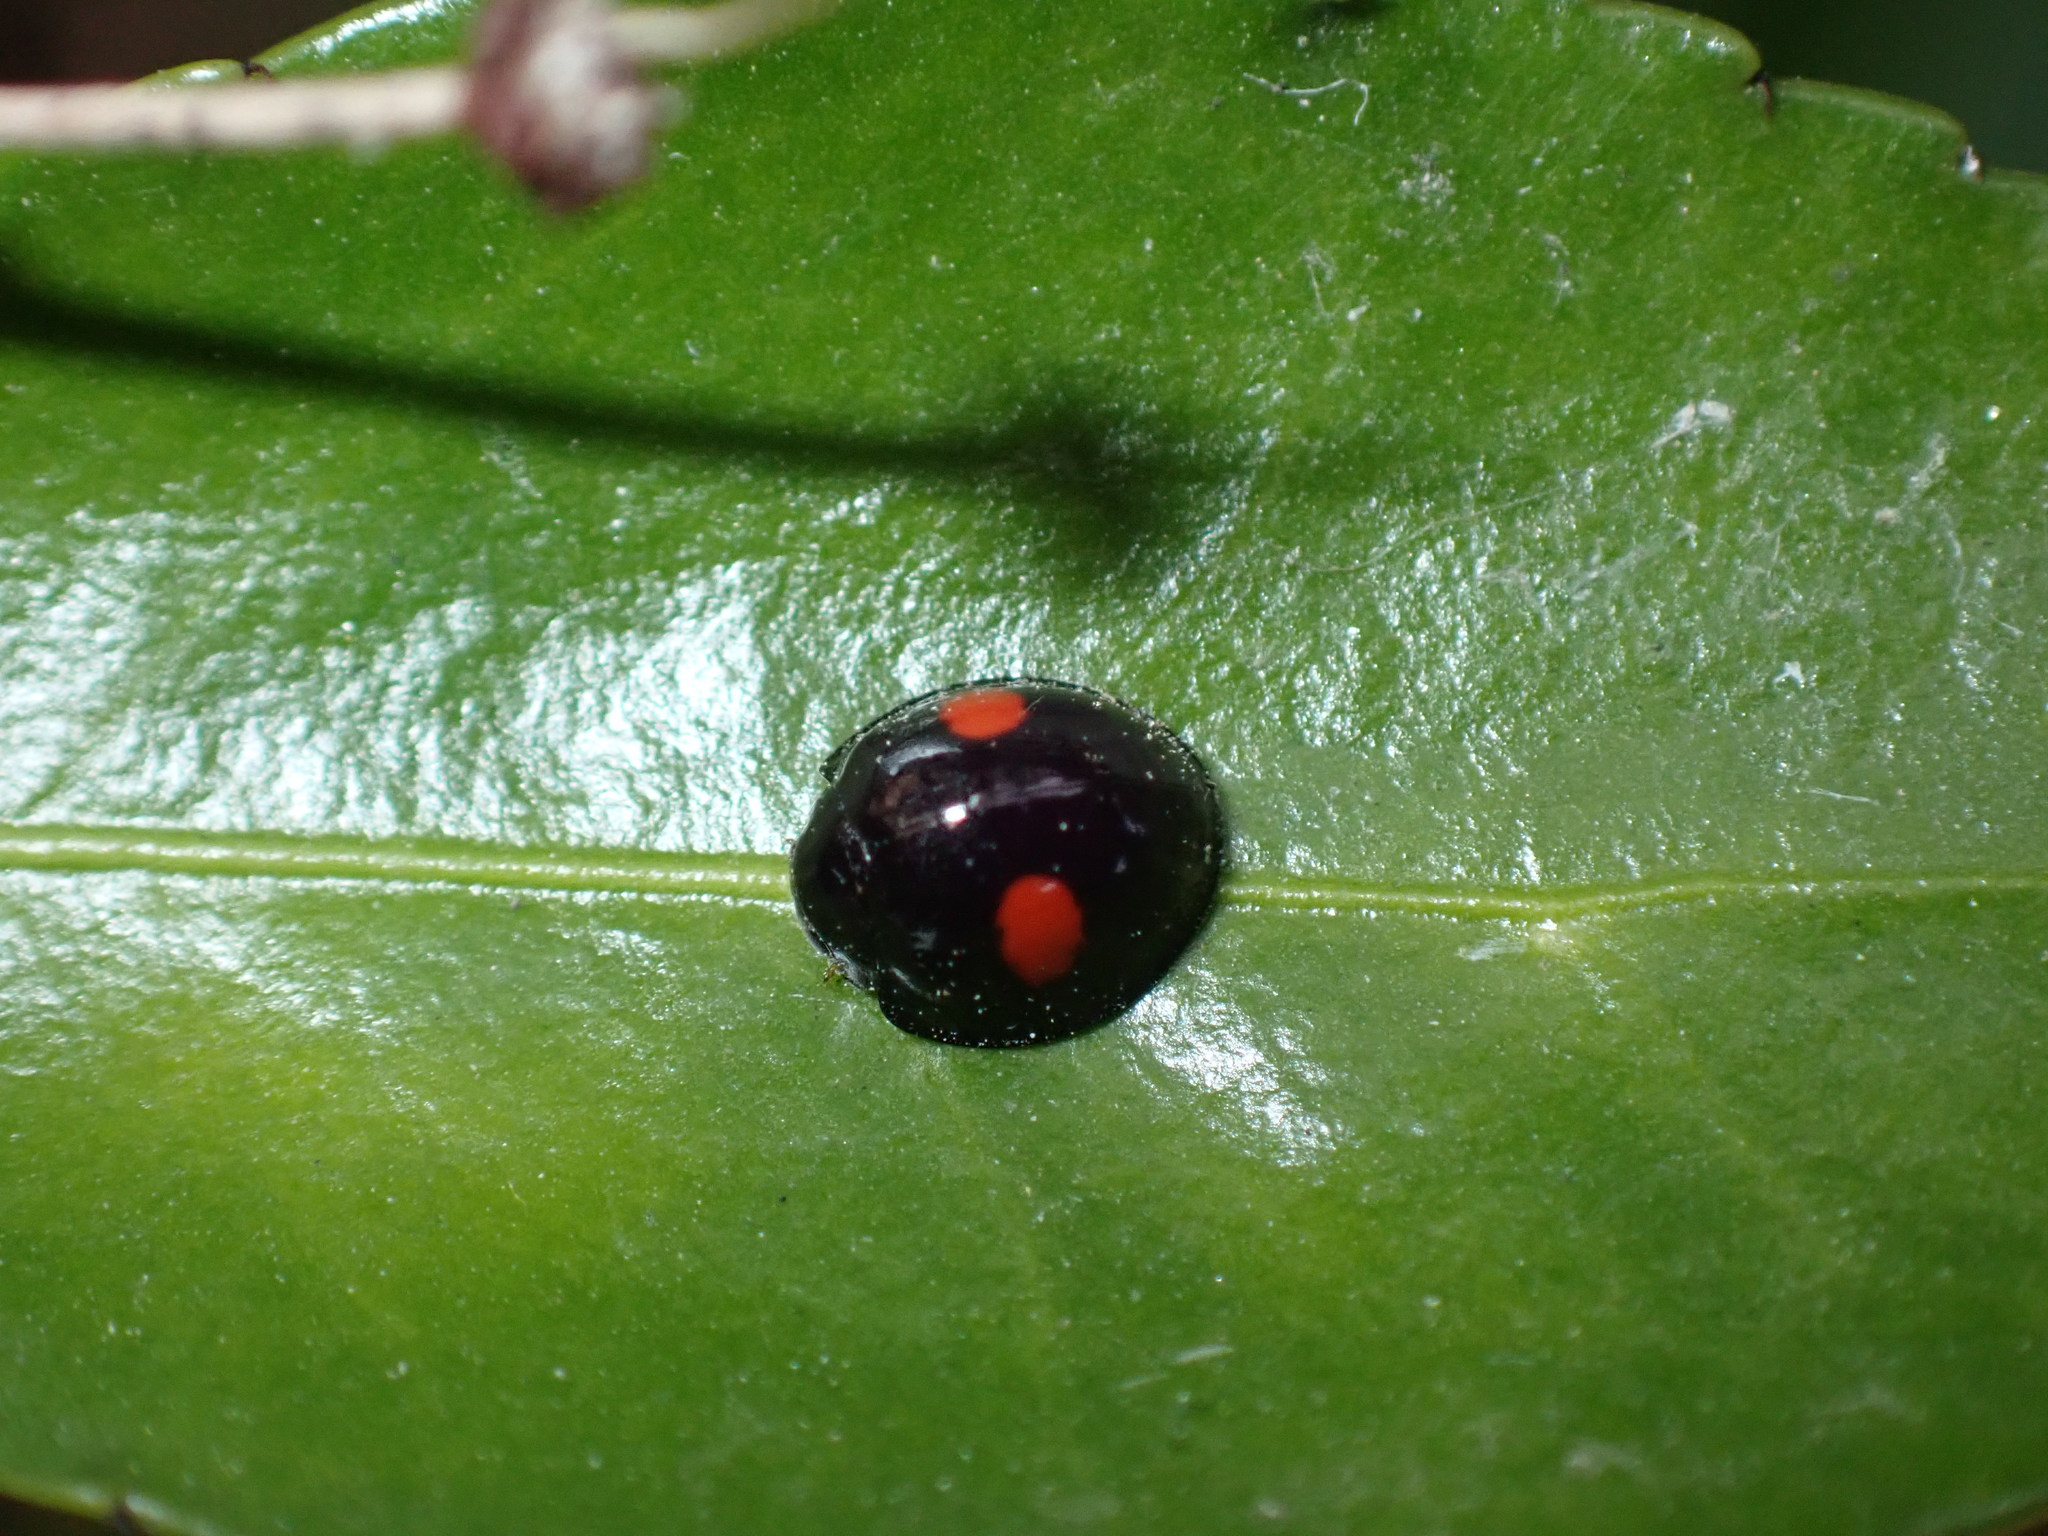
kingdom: Animalia
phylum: Arthropoda
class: Insecta
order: Coleoptera
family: Coccinellidae
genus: Chilocorus
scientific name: Chilocorus renipustulatus
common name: Kidney-spot ladybird
